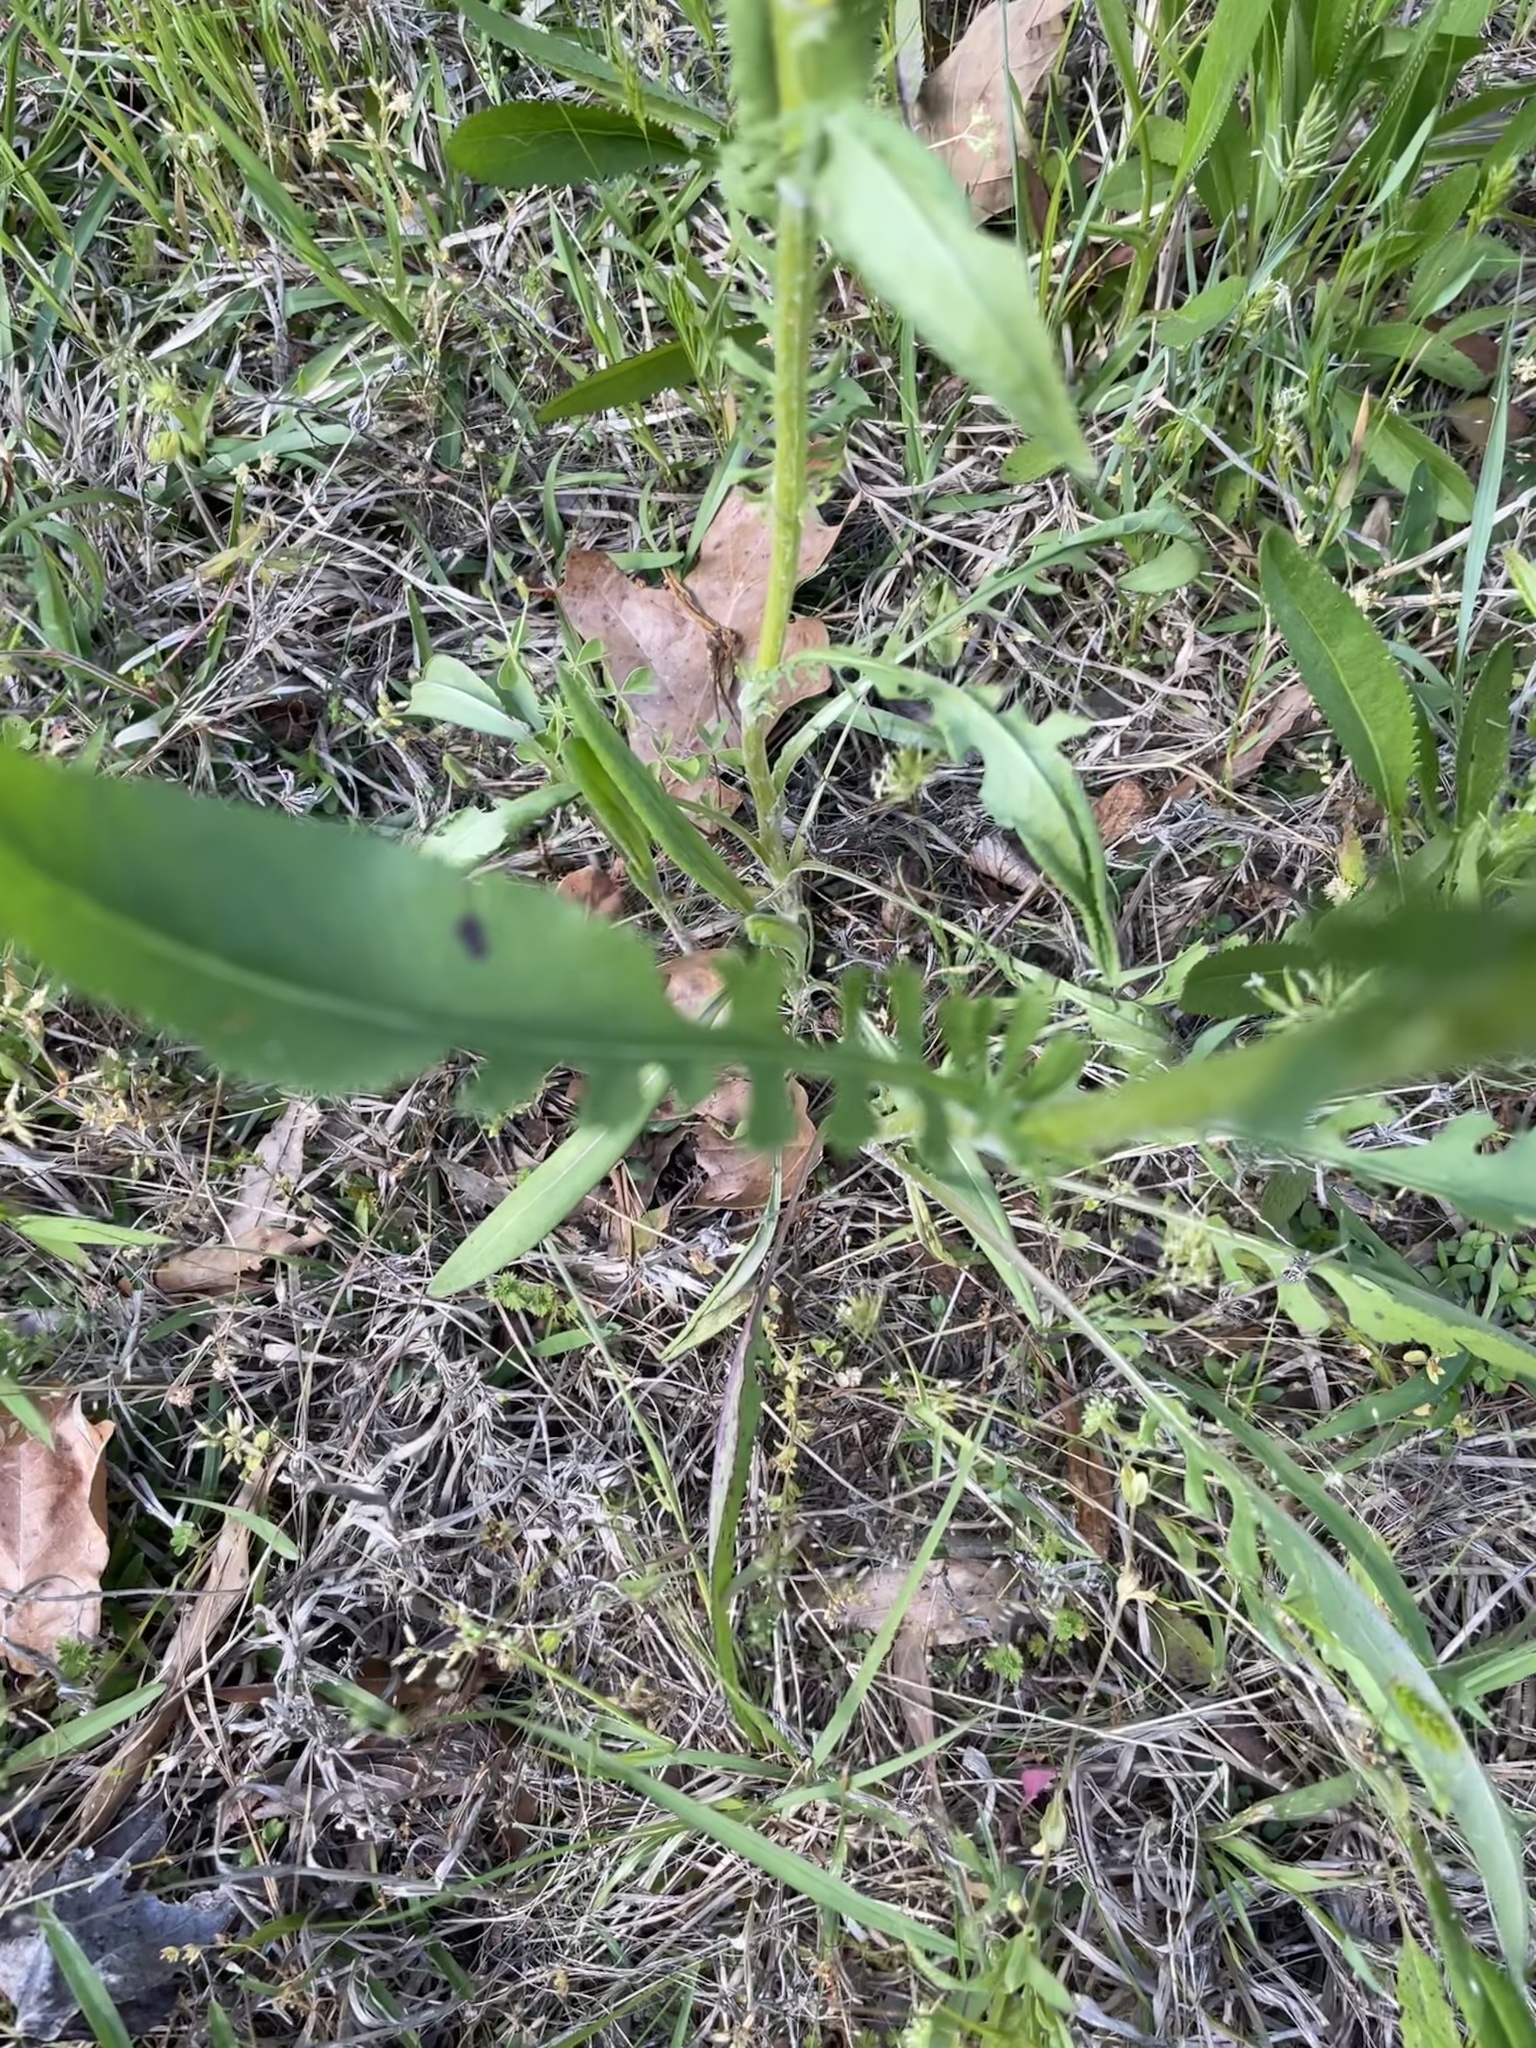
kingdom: Plantae
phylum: Tracheophyta
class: Magnoliopsida
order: Asterales
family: Asteraceae
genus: Packera
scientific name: Packera anonyma
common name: Small ragwort
